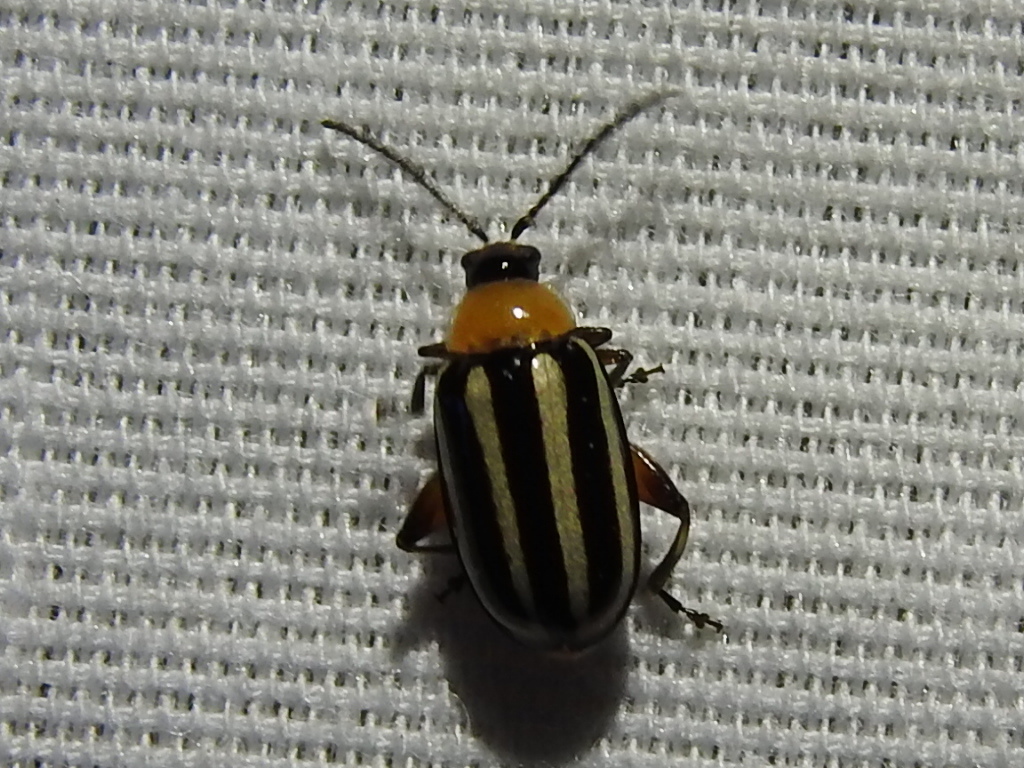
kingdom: Animalia
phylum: Arthropoda
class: Insecta
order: Coleoptera
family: Chrysomelidae
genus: Disonycha
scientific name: Disonycha glabrata
